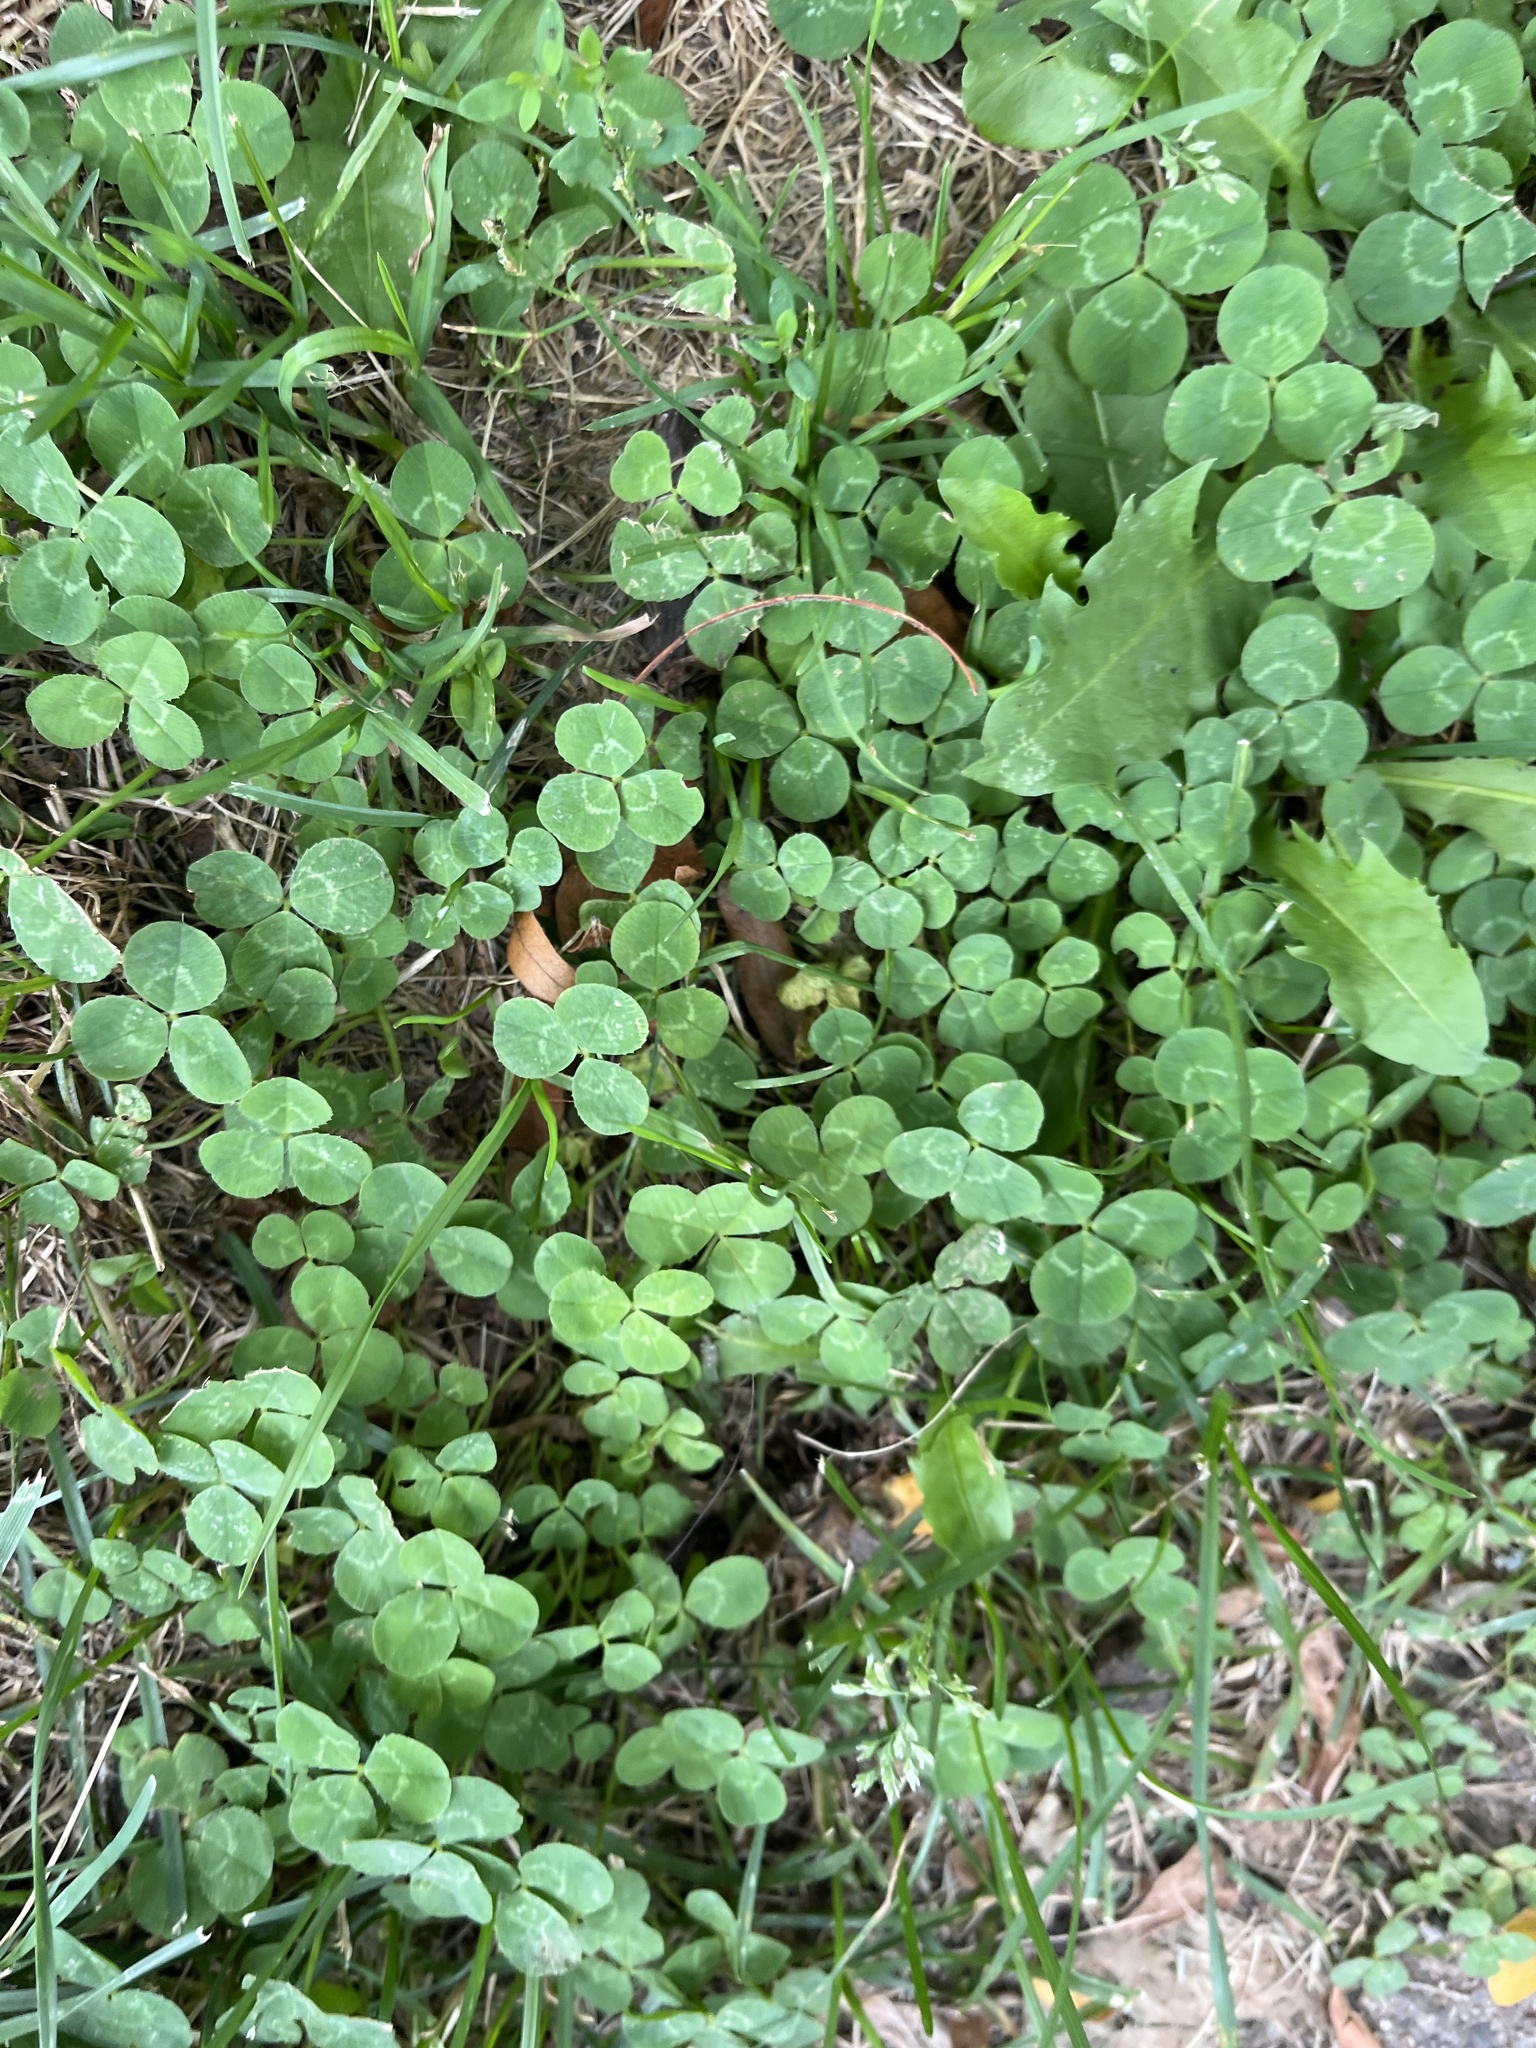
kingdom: Plantae
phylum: Tracheophyta
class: Magnoliopsida
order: Fabales
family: Fabaceae
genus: Trifolium
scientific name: Trifolium repens
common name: White clover
